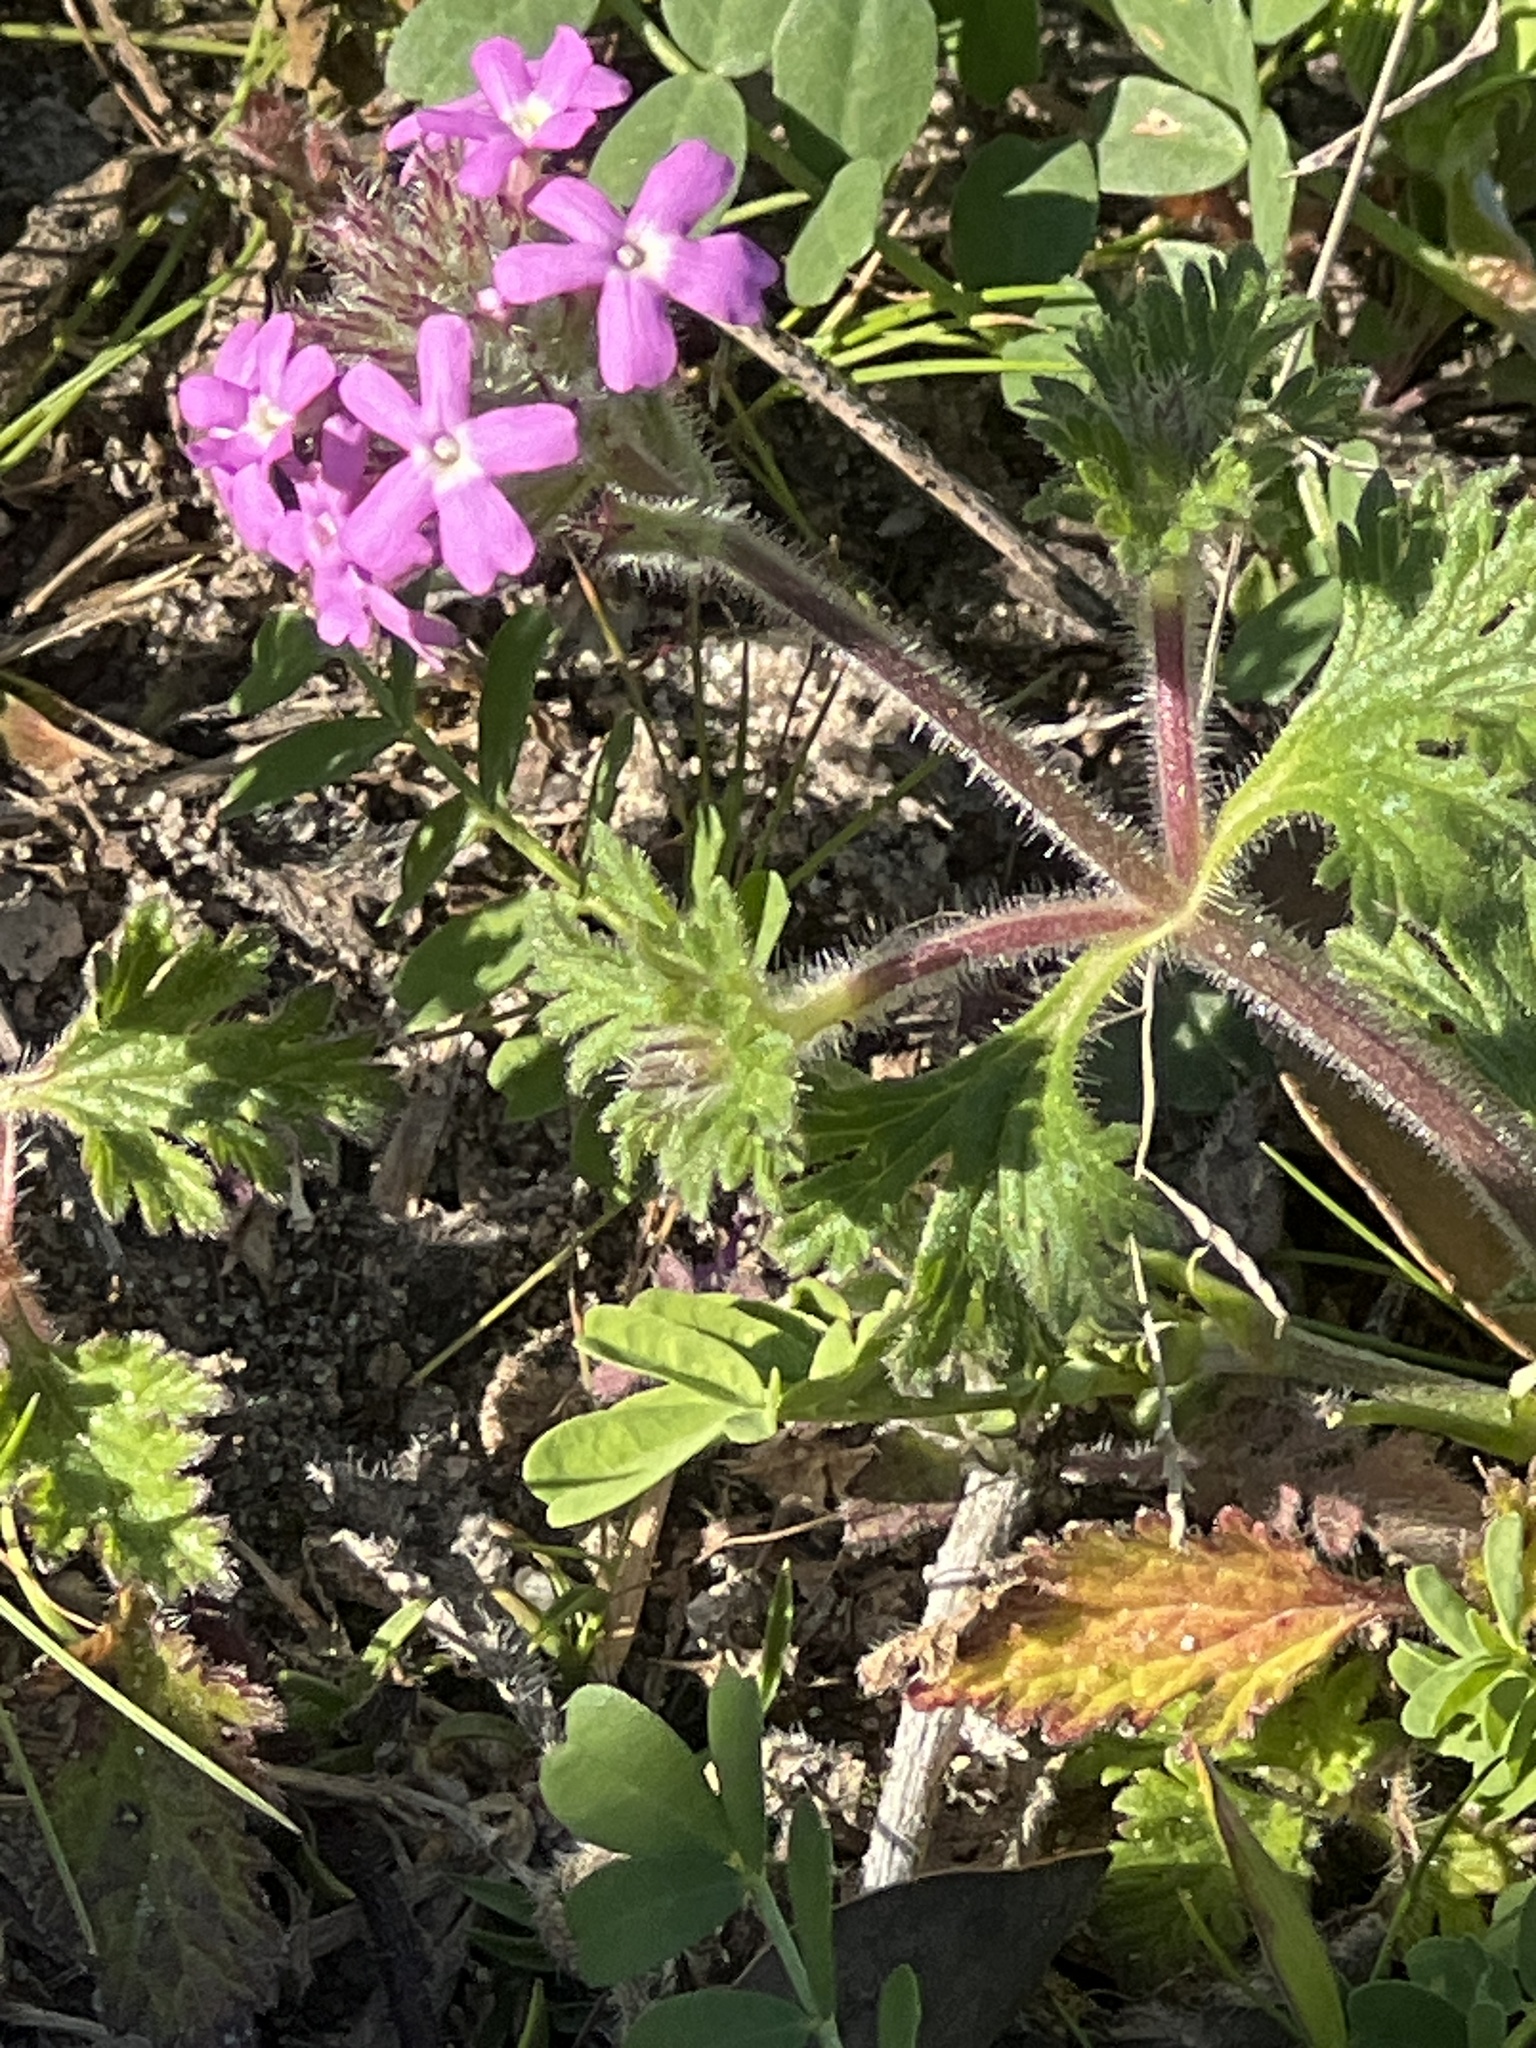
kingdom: Plantae
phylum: Tracheophyta
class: Magnoliopsida
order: Lamiales
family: Verbenaceae
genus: Verbena
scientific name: Verbena pumila
